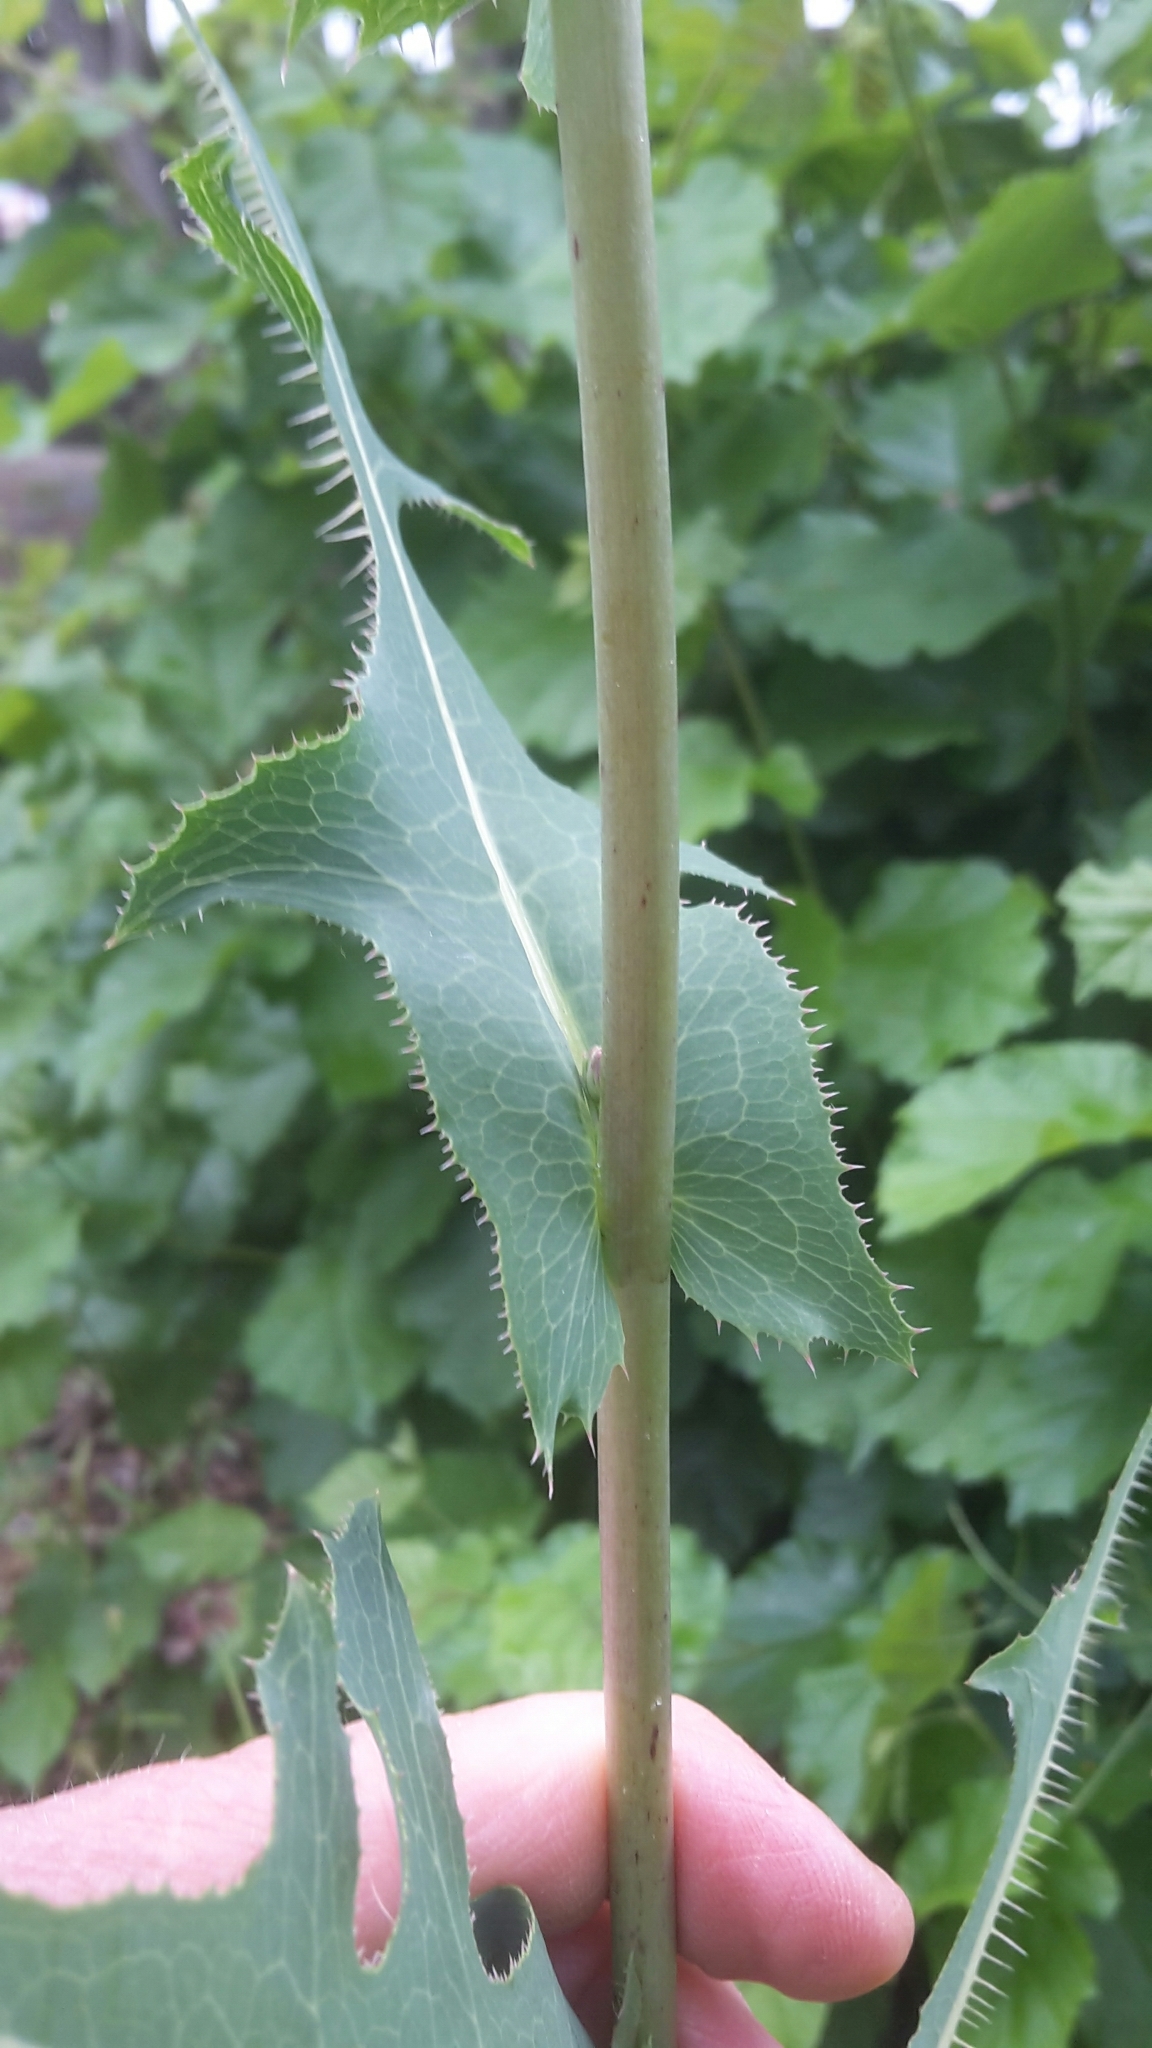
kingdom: Plantae
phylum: Tracheophyta
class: Magnoliopsida
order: Asterales
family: Asteraceae
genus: Lactuca
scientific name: Lactuca serriola
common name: Prickly lettuce
